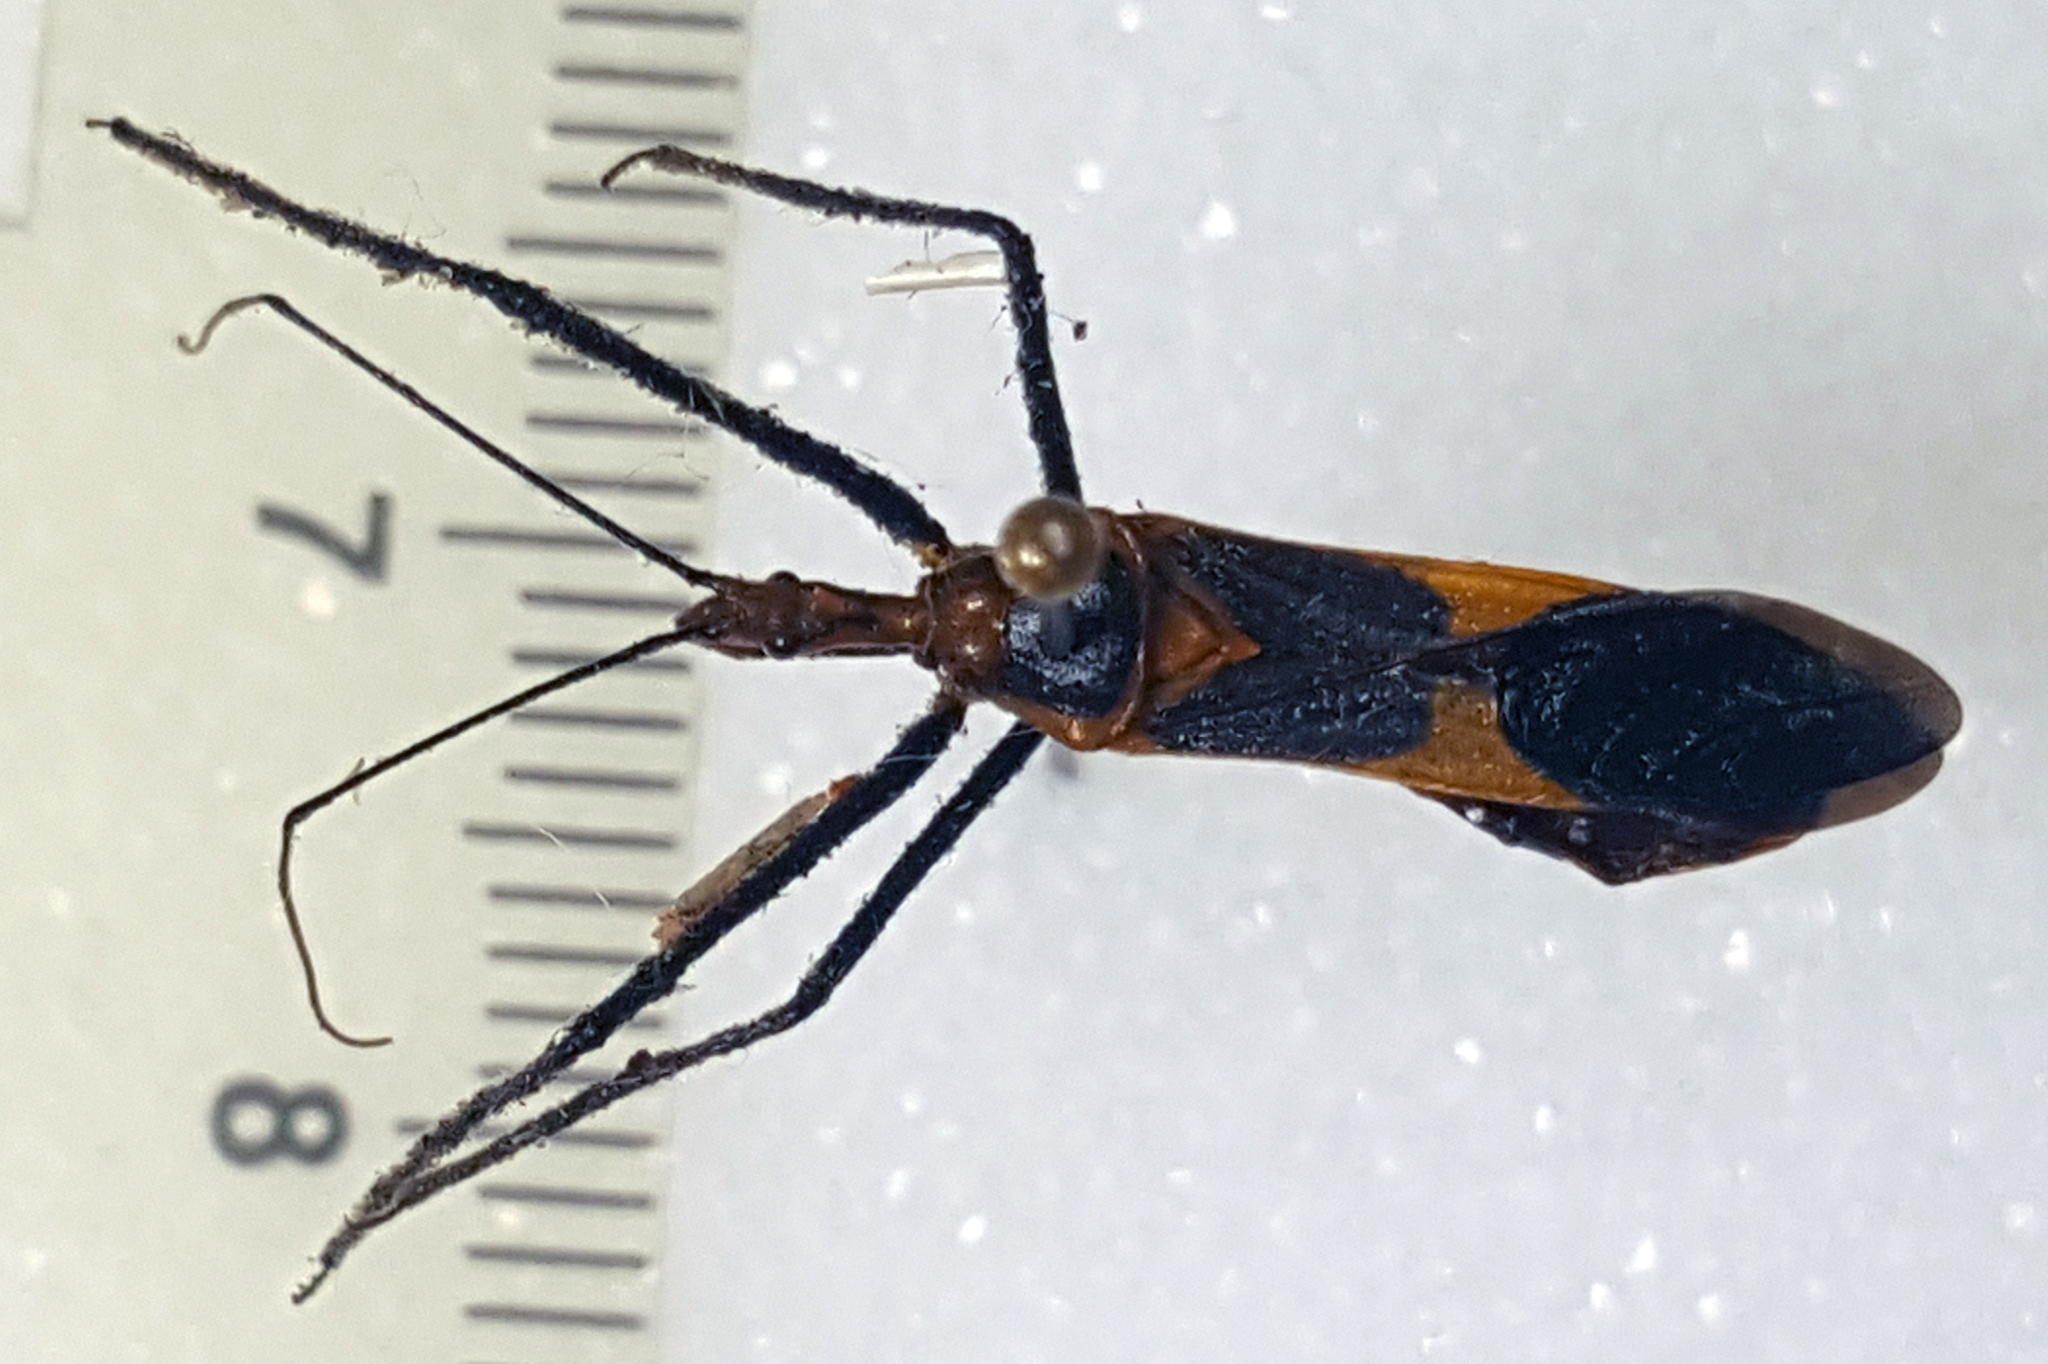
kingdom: Animalia
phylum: Arthropoda
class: Insecta
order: Hemiptera
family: Reduviidae
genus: Zelus
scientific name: Zelus longipes
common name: Milkweed assassin bug
